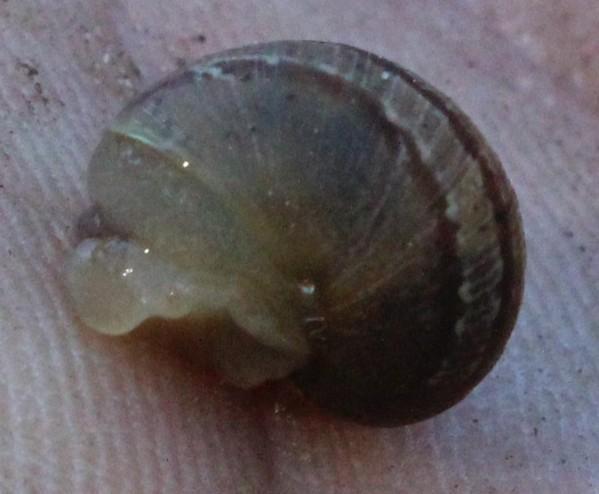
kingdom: Animalia
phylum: Mollusca
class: Gastropoda
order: Stylommatophora
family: Helicidae
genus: Cornu
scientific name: Cornu aspersum
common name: Brown garden snail
